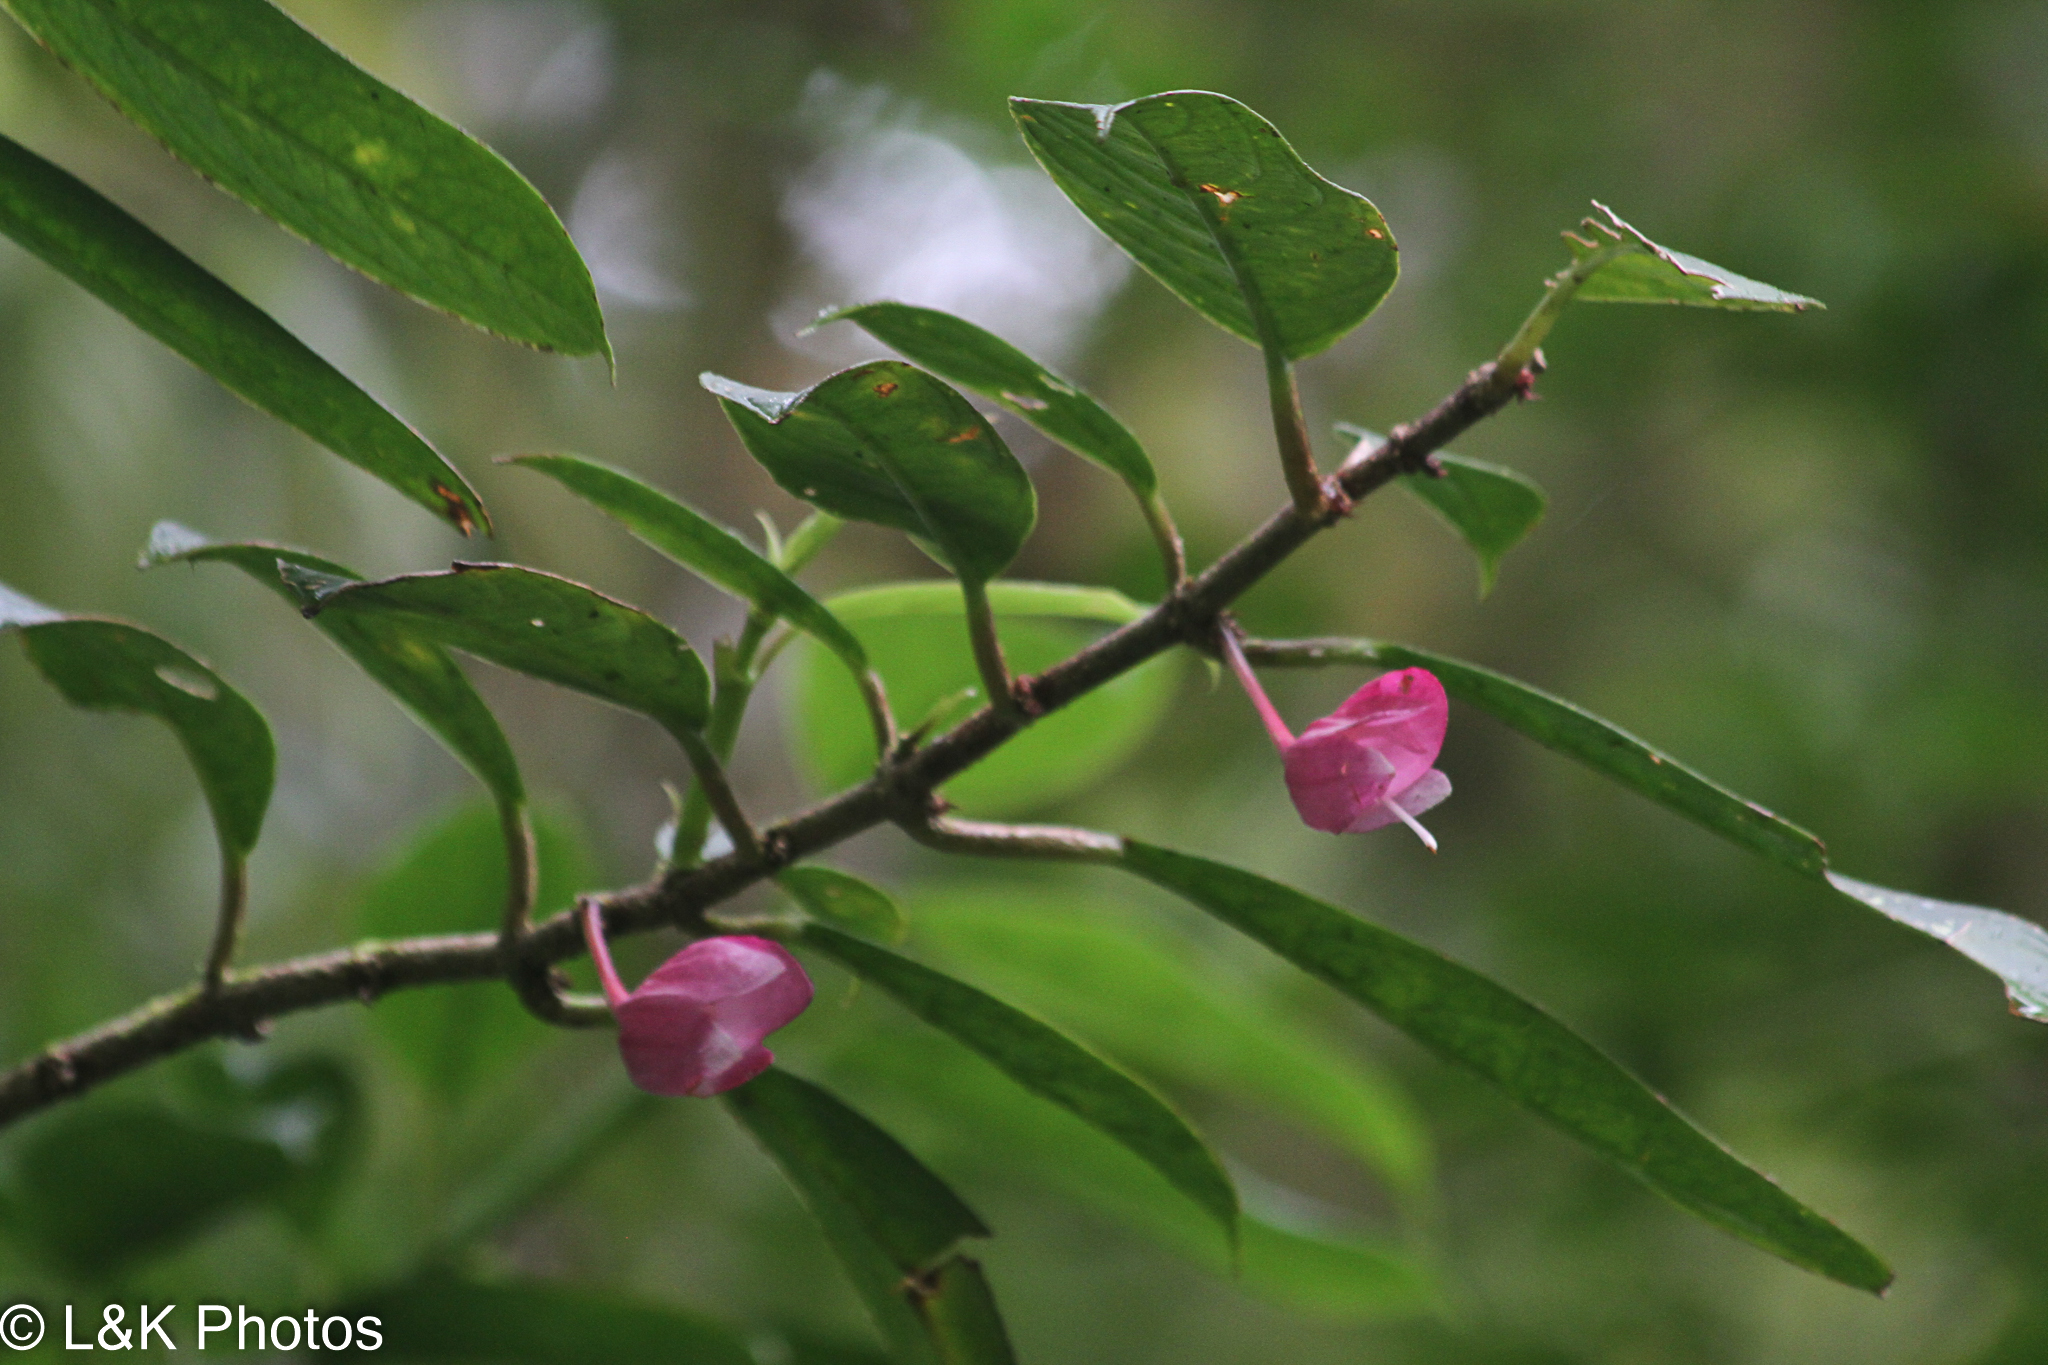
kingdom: Plantae
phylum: Tracheophyta
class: Magnoliopsida
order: Lamiales
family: Gesneriaceae
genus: Drymonia
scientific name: Drymonia conchocalyx
